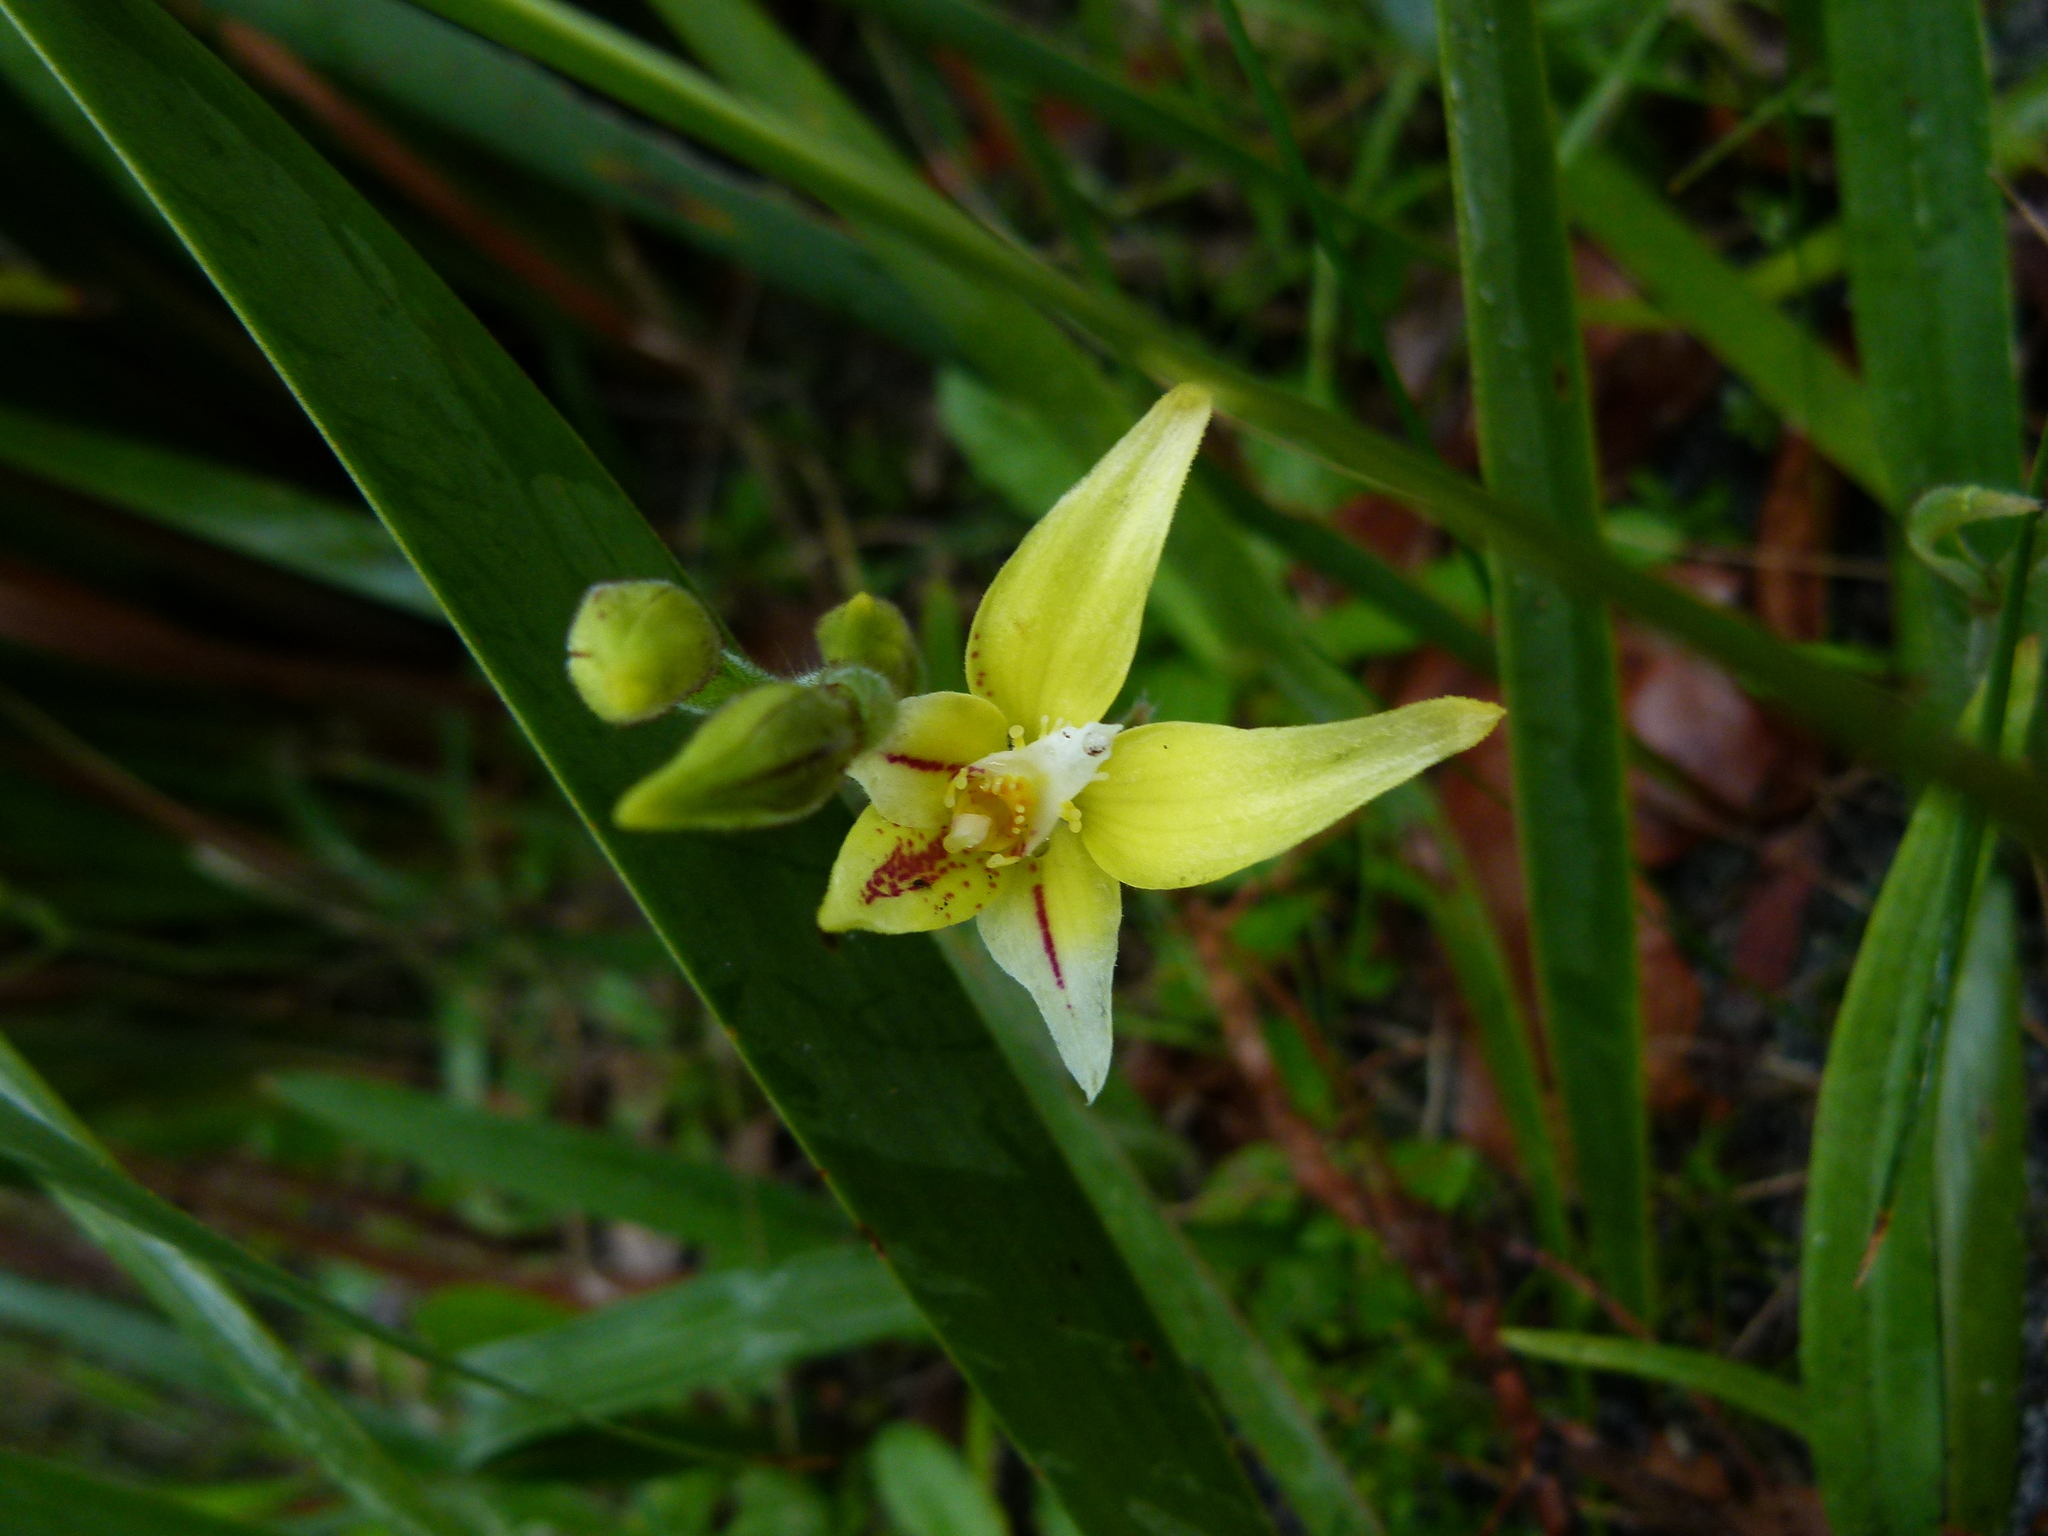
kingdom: Plantae
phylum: Tracheophyta
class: Liliopsida
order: Asparagales
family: Orchidaceae
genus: Caladenia
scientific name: Caladenia flava
